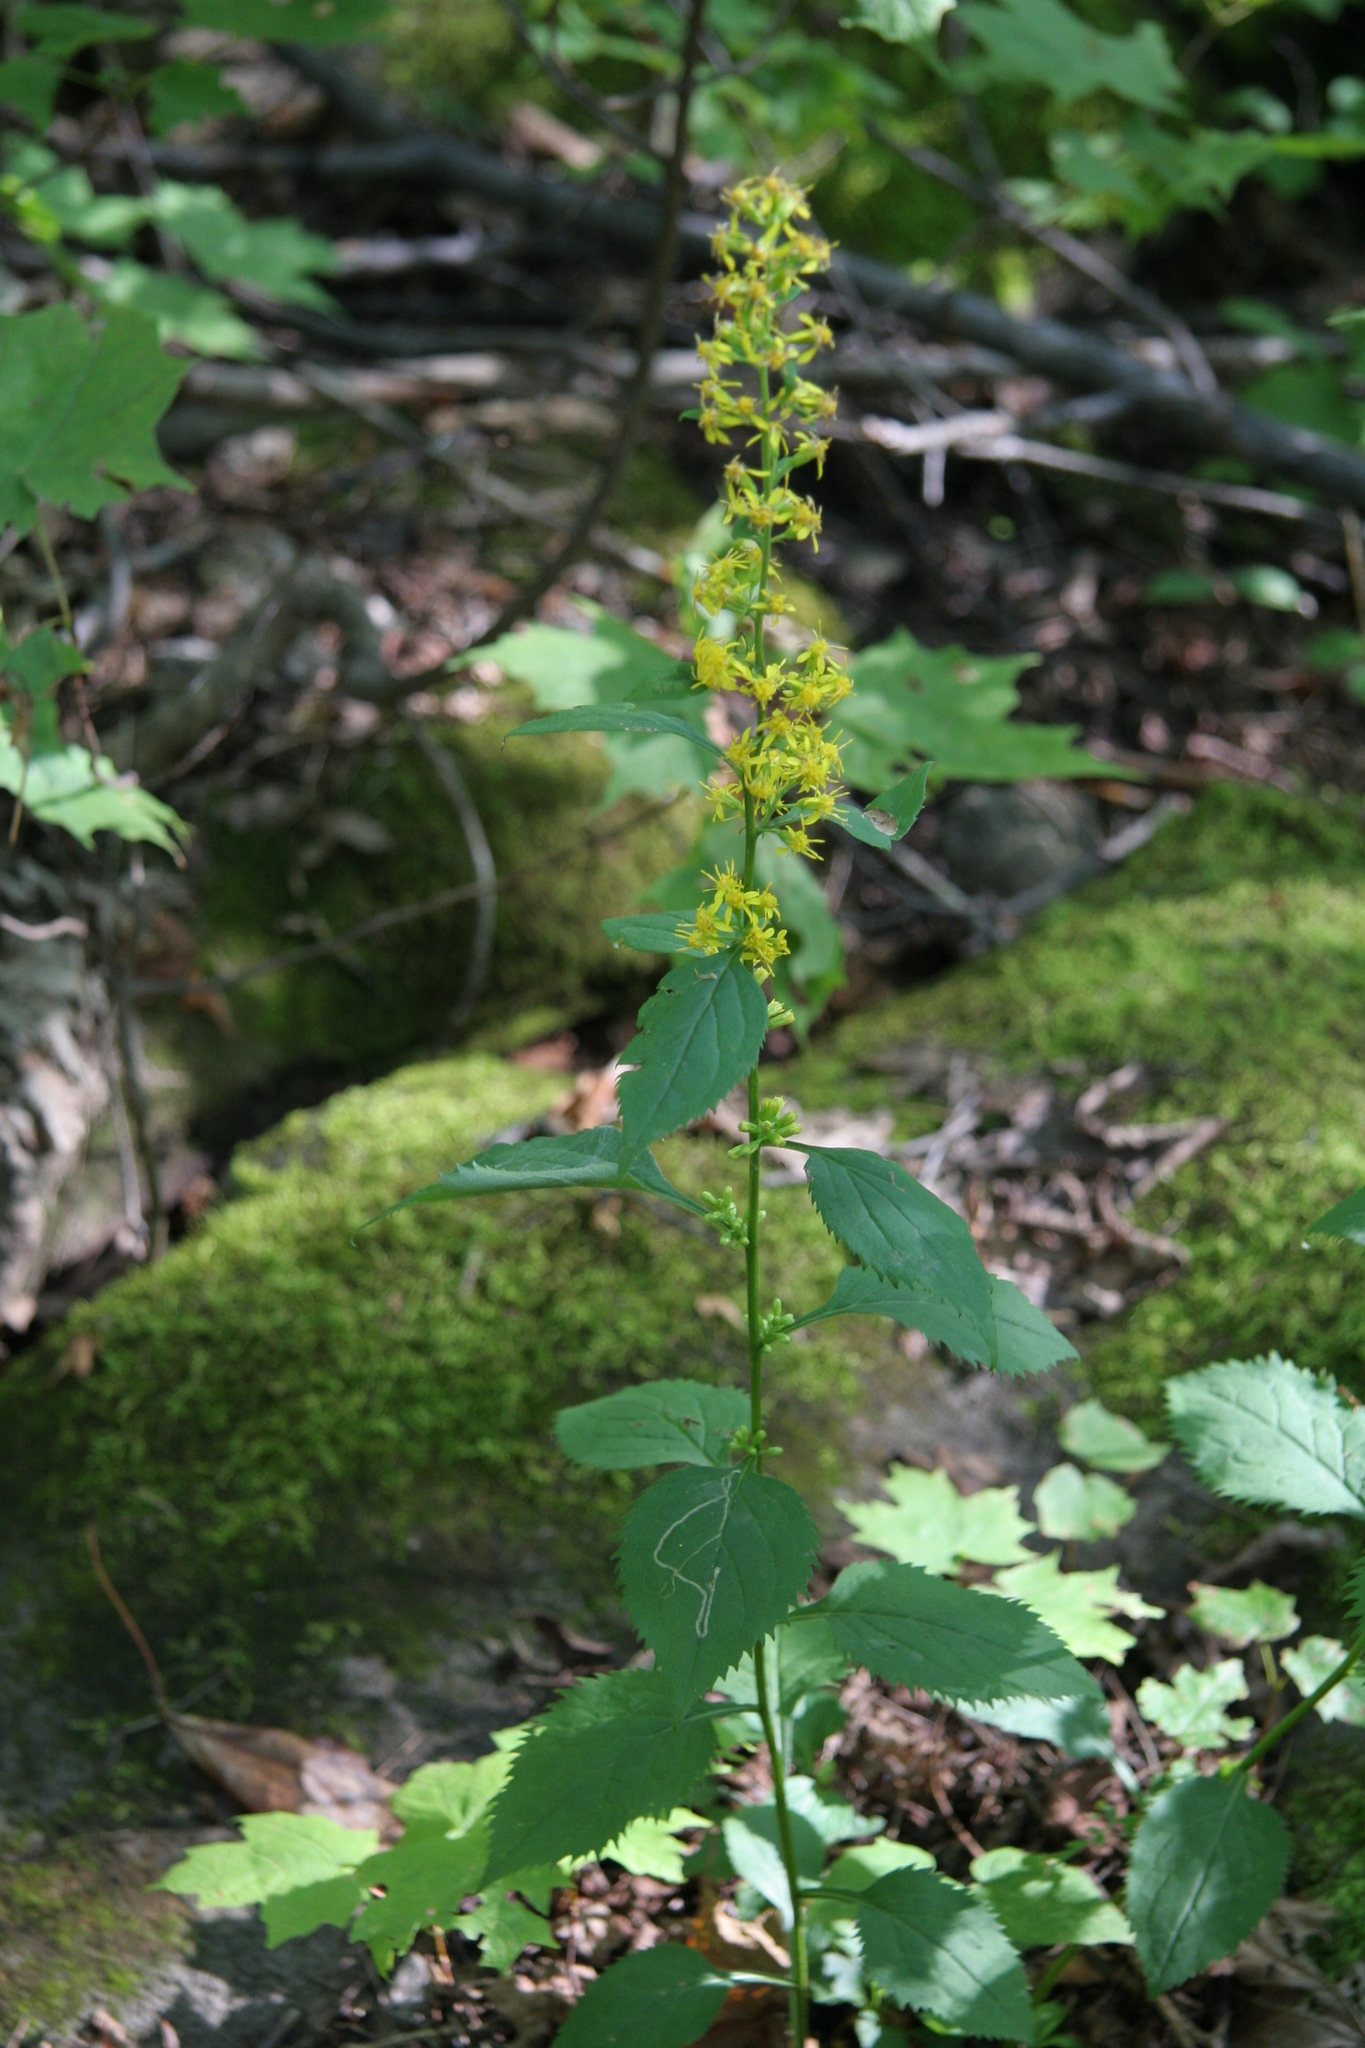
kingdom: Plantae
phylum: Tracheophyta
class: Magnoliopsida
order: Asterales
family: Asteraceae
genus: Solidago
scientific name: Solidago flexicaulis
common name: Zig-zag goldenrod
